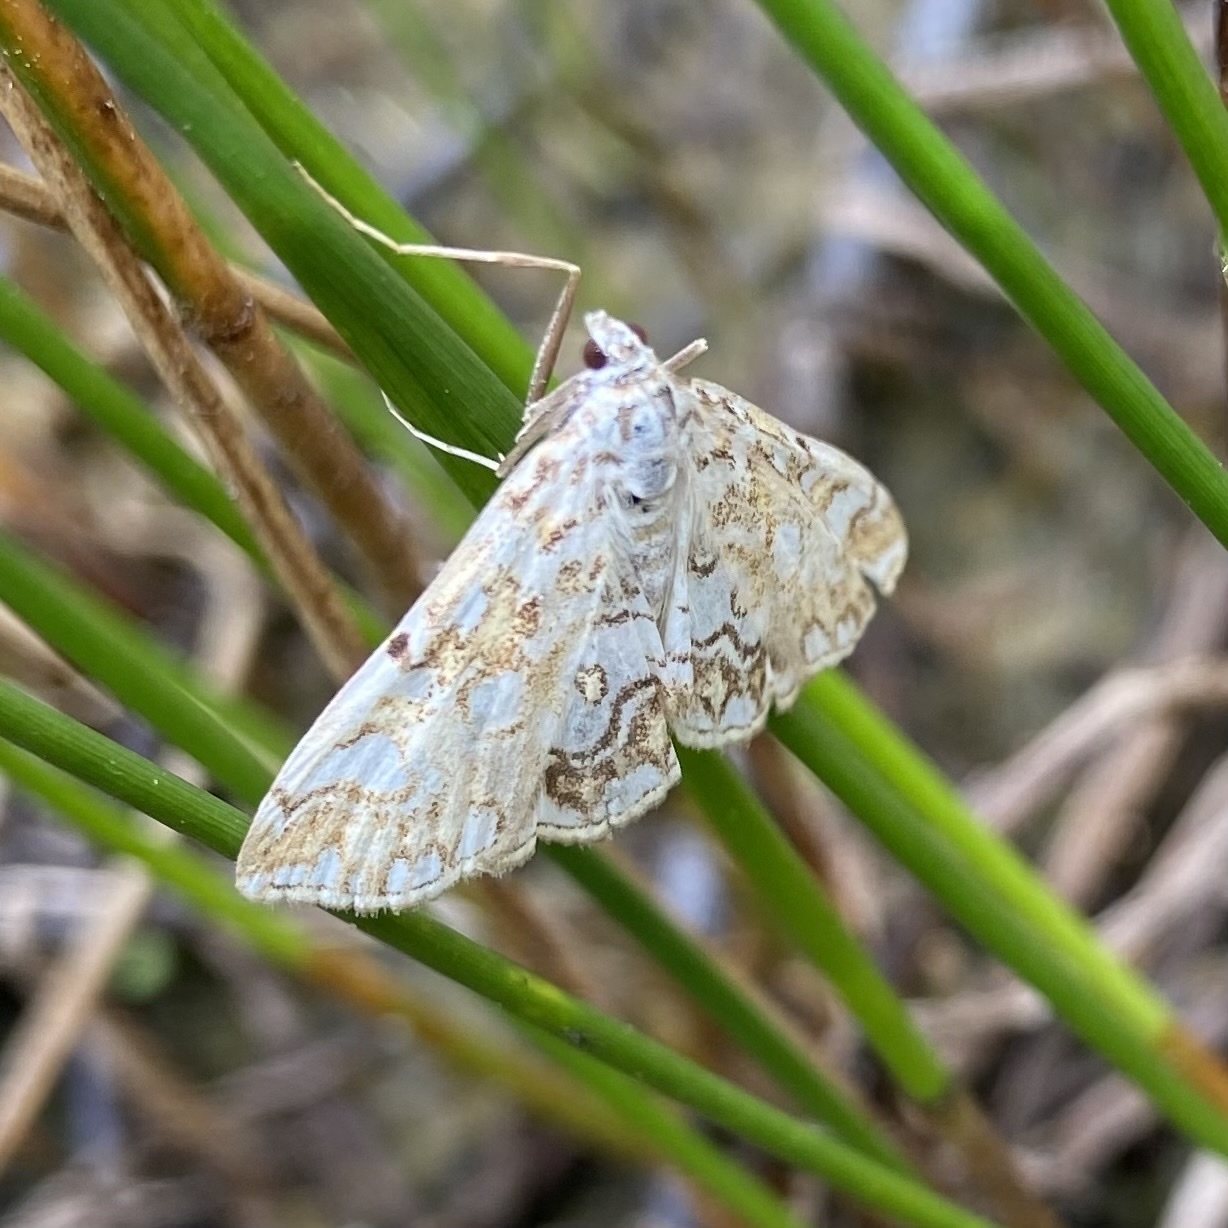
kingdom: Animalia
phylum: Arthropoda
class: Insecta
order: Lepidoptera
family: Crambidae
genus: Elophila
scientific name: Elophila nymphaeata
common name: Brown china-mark
